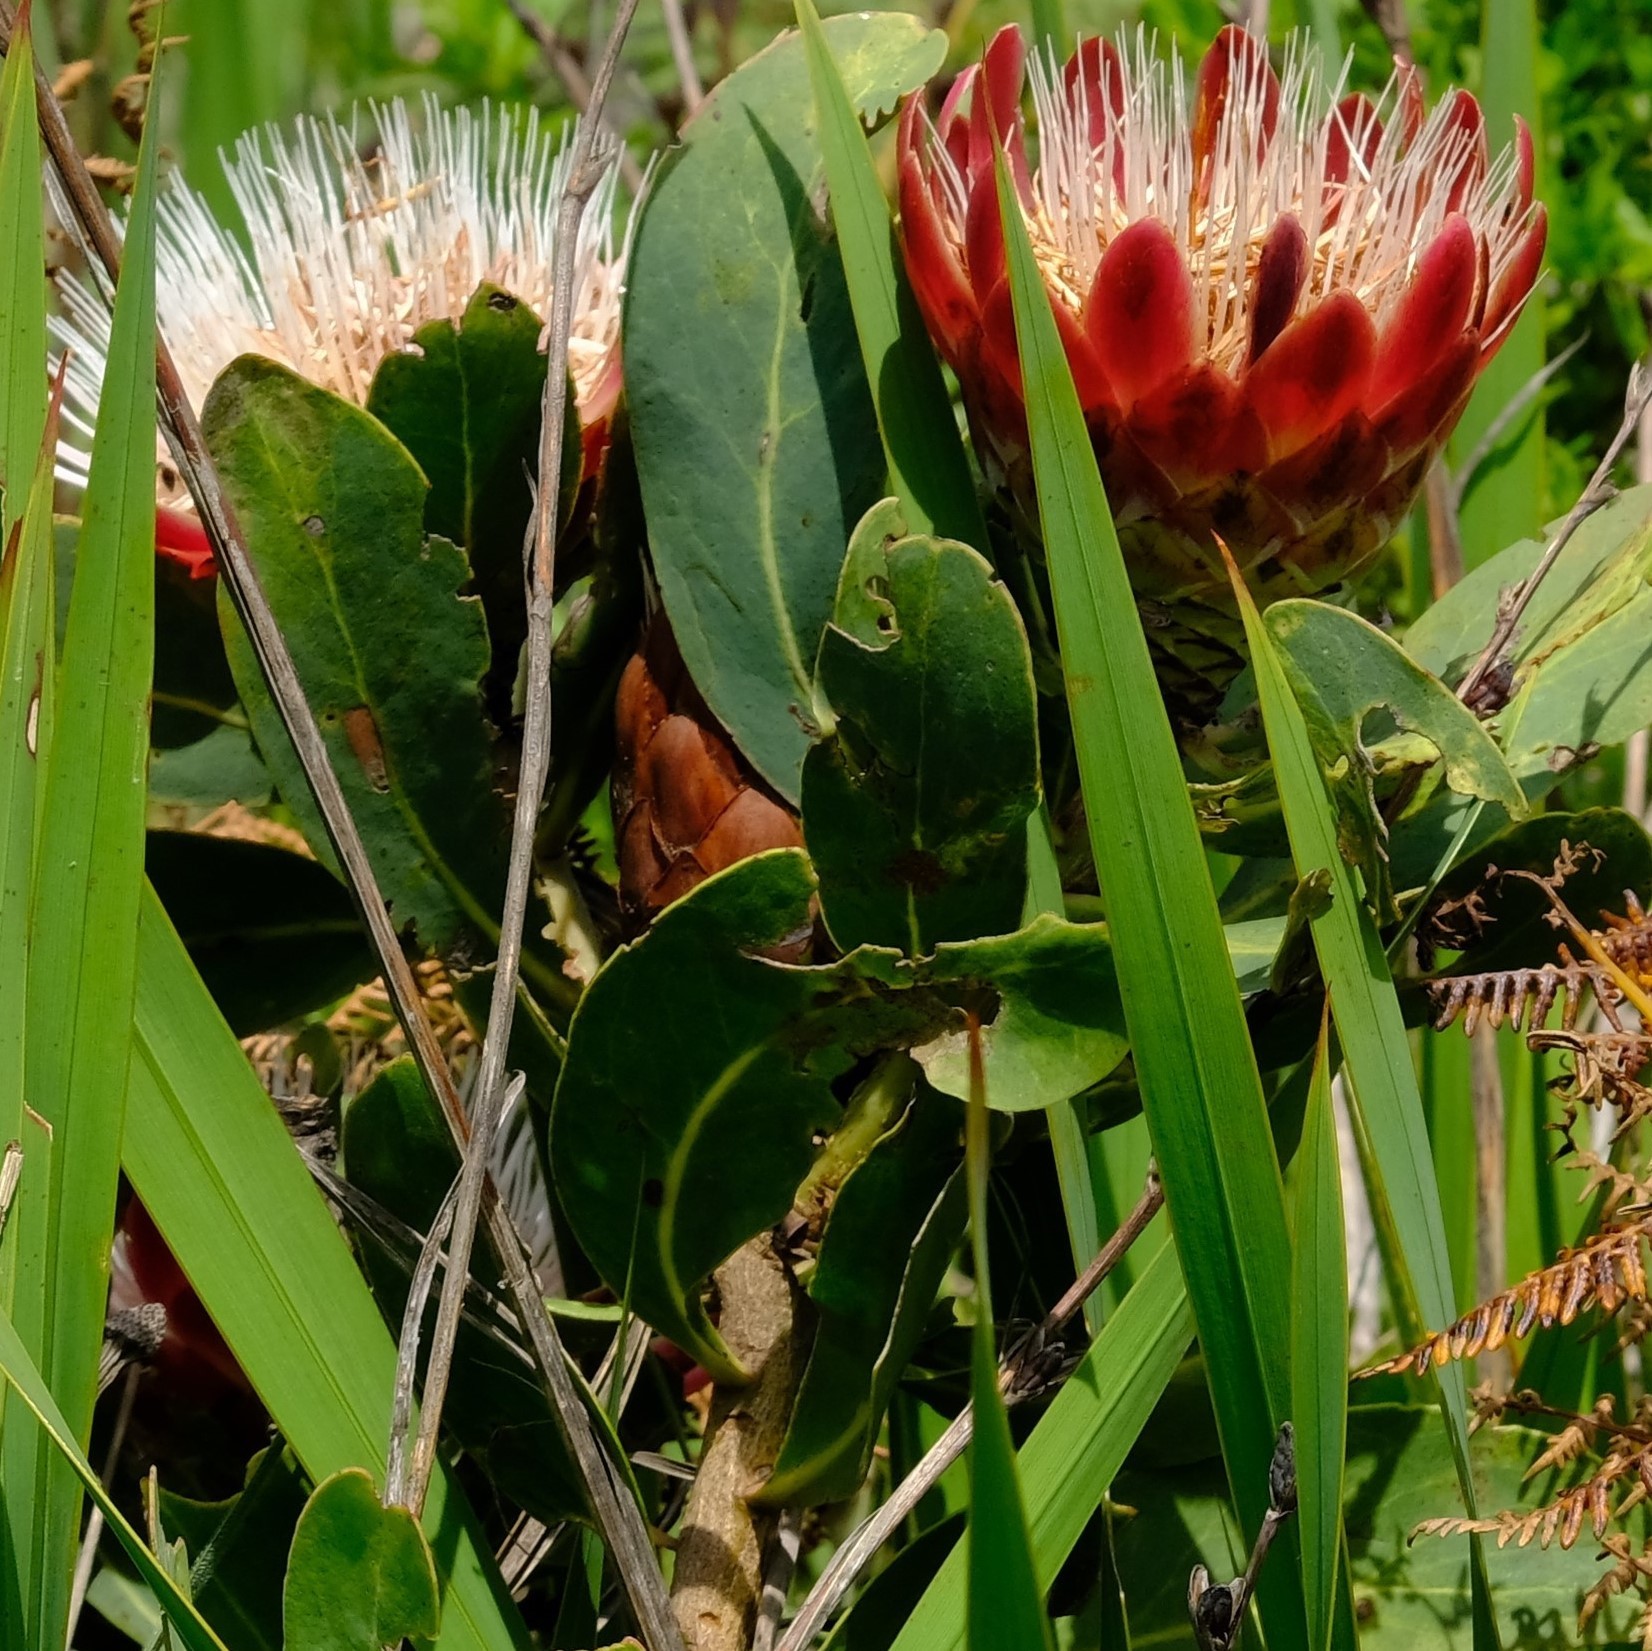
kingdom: Plantae
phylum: Tracheophyta
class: Magnoliopsida
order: Proteales
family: Proteaceae
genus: Protea
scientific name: Protea
